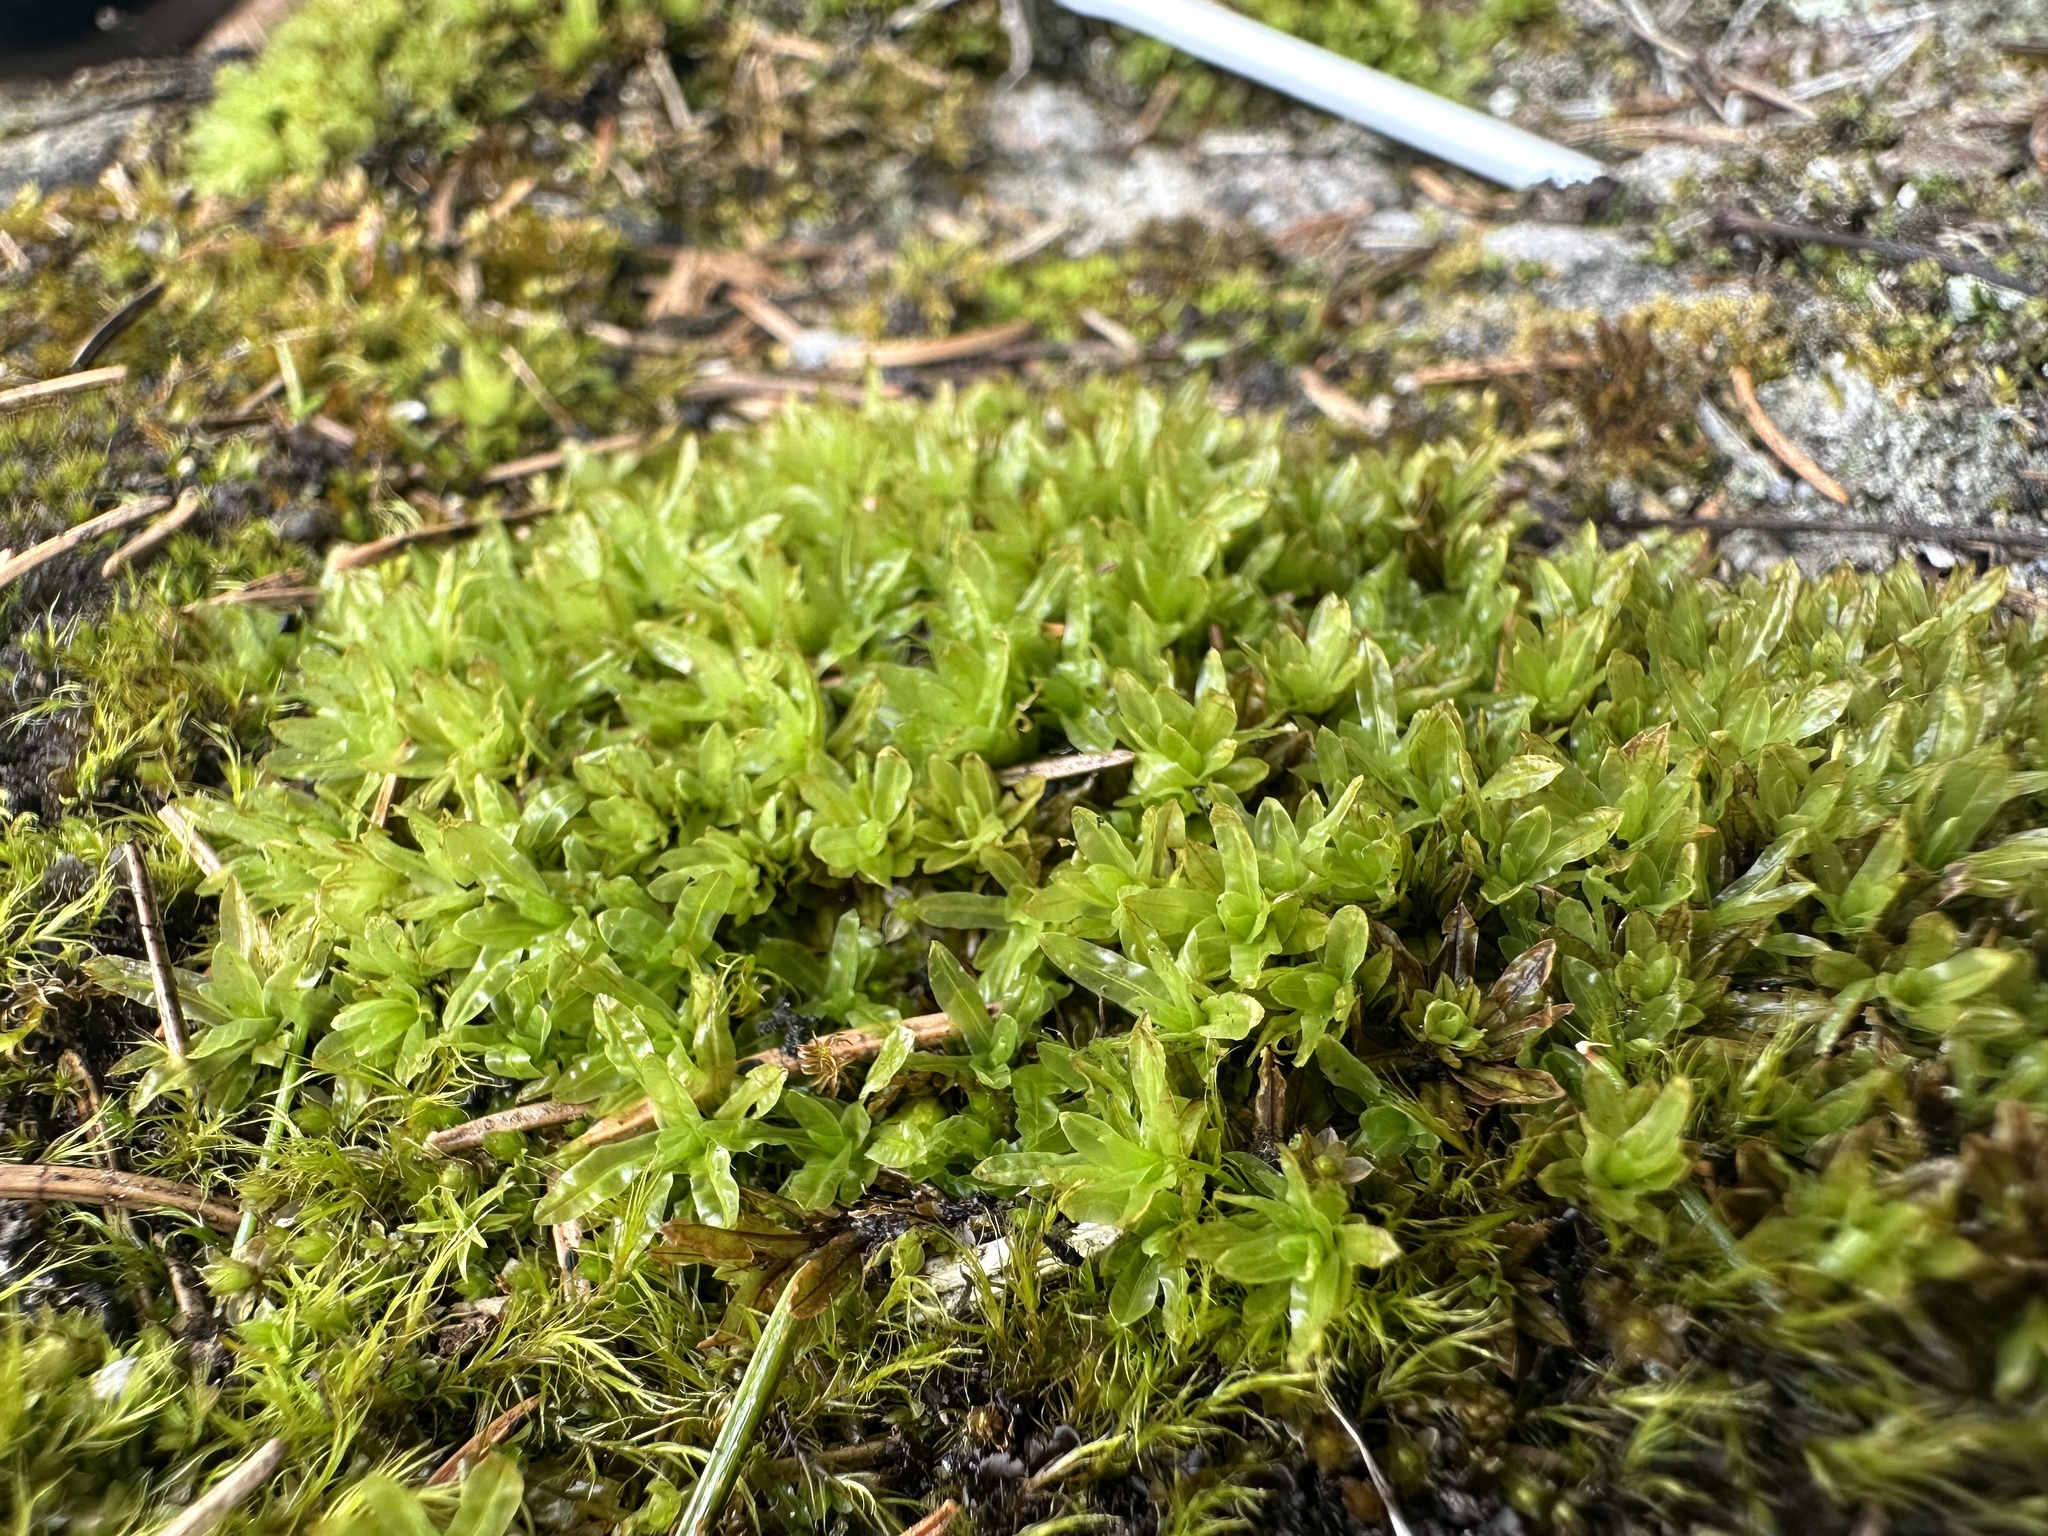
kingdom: Plantae
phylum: Bryophyta
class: Bryopsida
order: Encalyptales
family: Encalyptaceae
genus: Encalypta
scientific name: Encalypta streptocarpa
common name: Spiral extinguisher-moss
